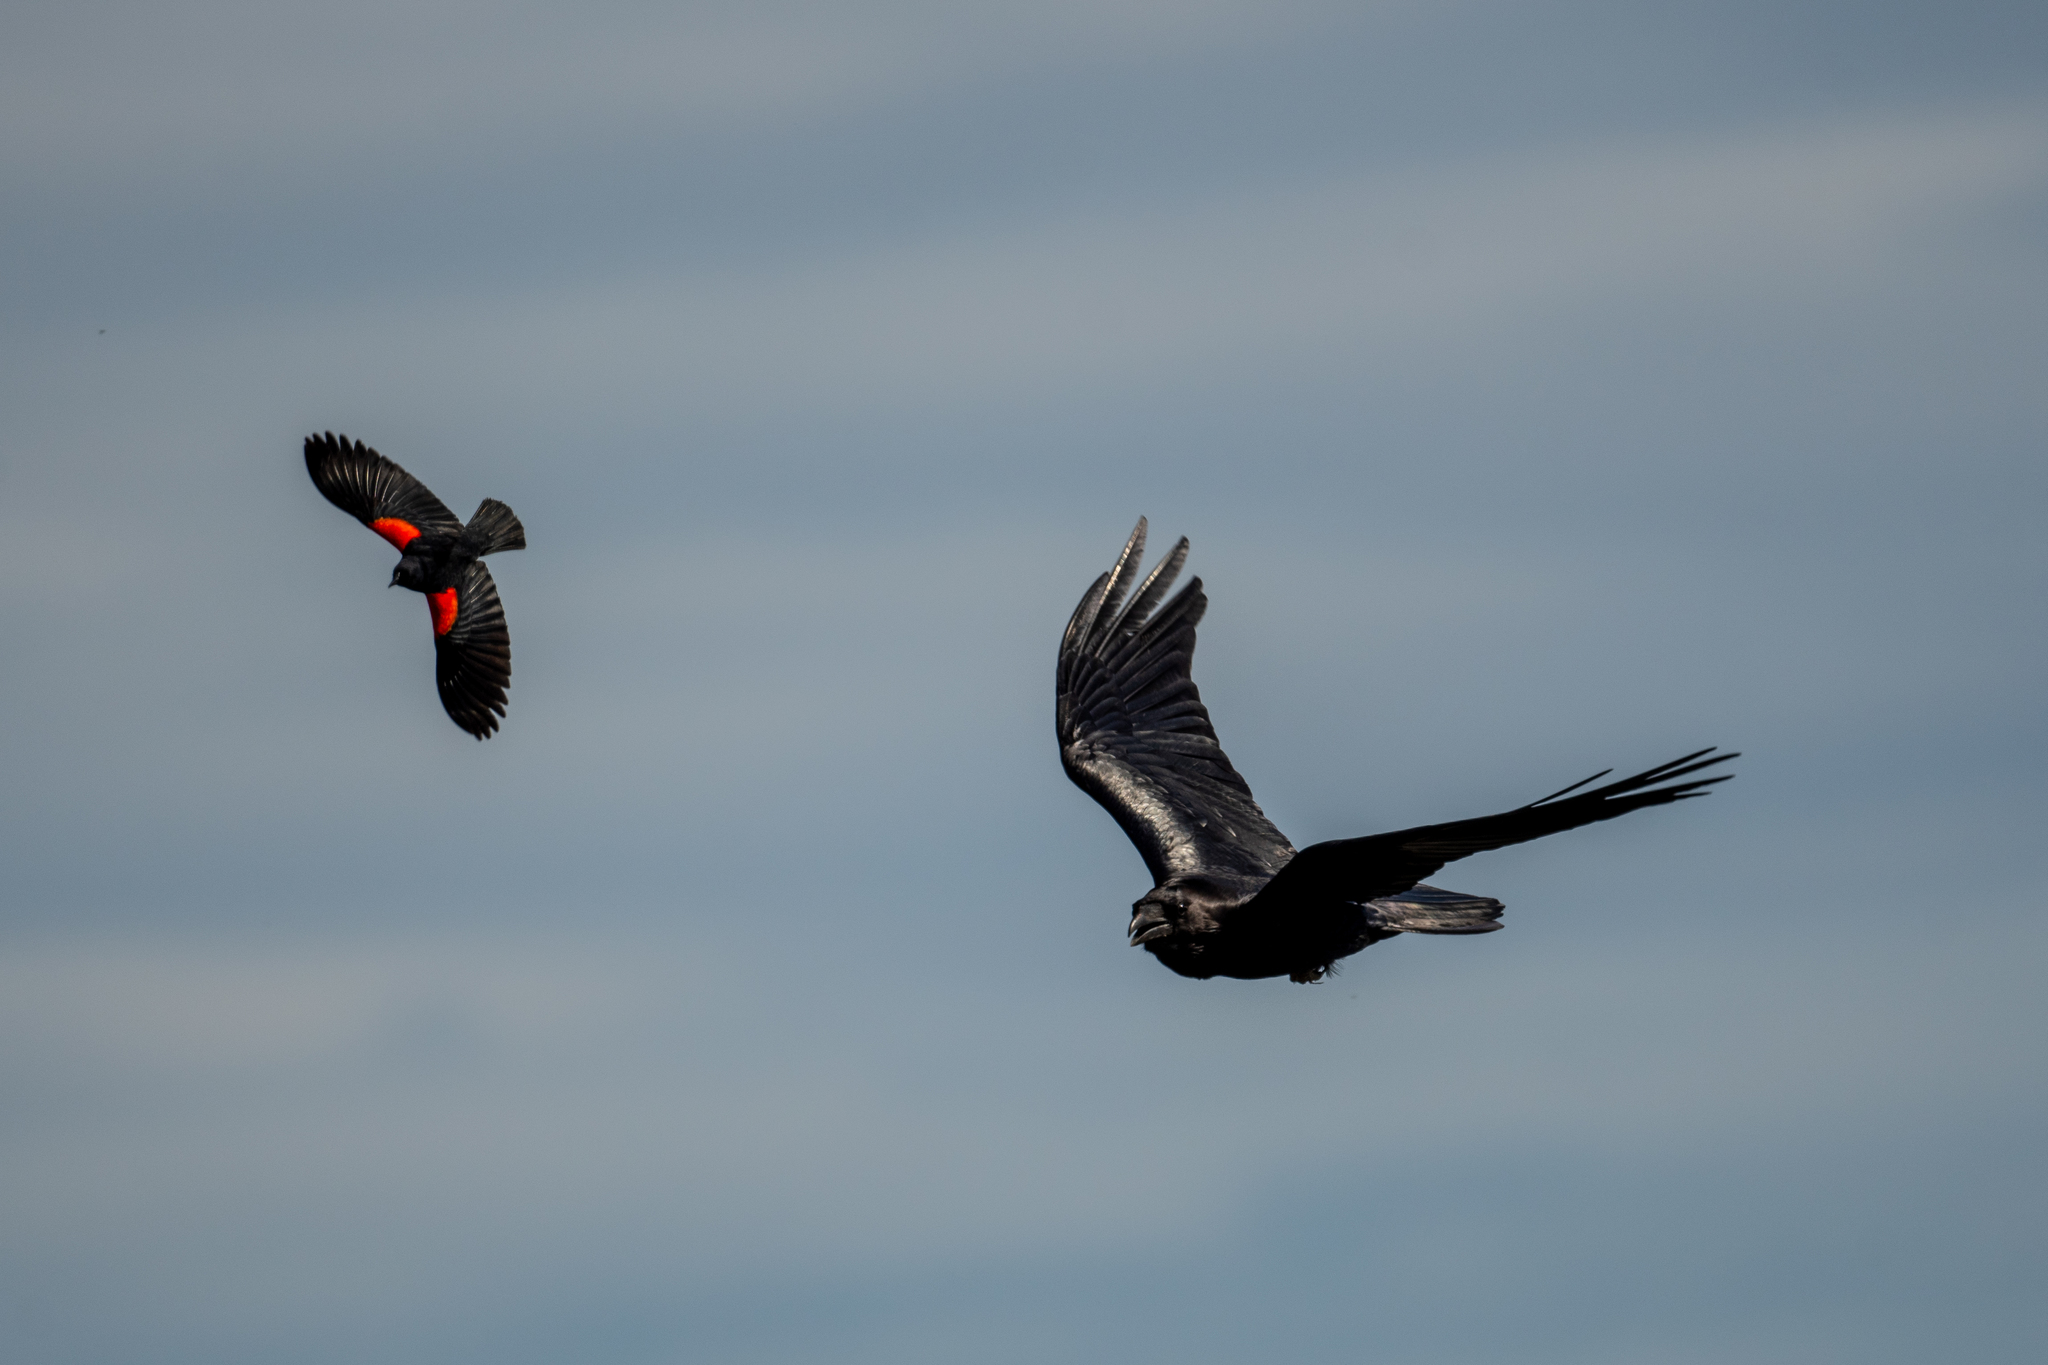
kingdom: Animalia
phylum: Chordata
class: Aves
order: Passeriformes
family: Icteridae
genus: Agelaius
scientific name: Agelaius phoeniceus
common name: Red-winged blackbird
